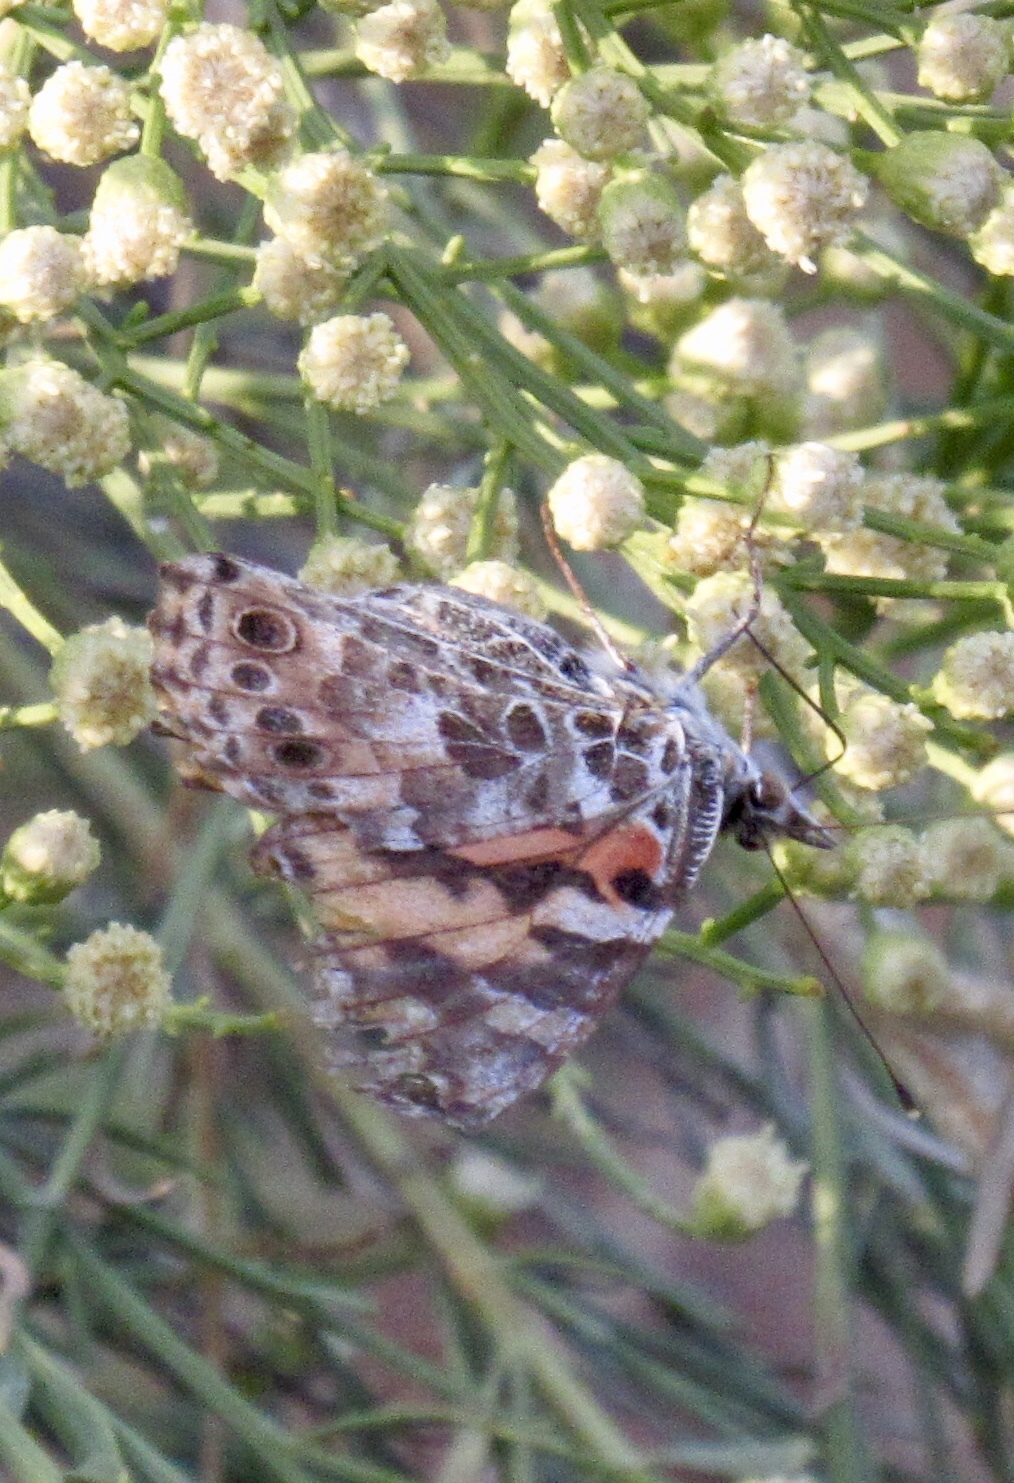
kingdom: Animalia
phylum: Arthropoda
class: Insecta
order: Lepidoptera
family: Nymphalidae
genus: Vanessa
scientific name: Vanessa cardui
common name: Painted lady
